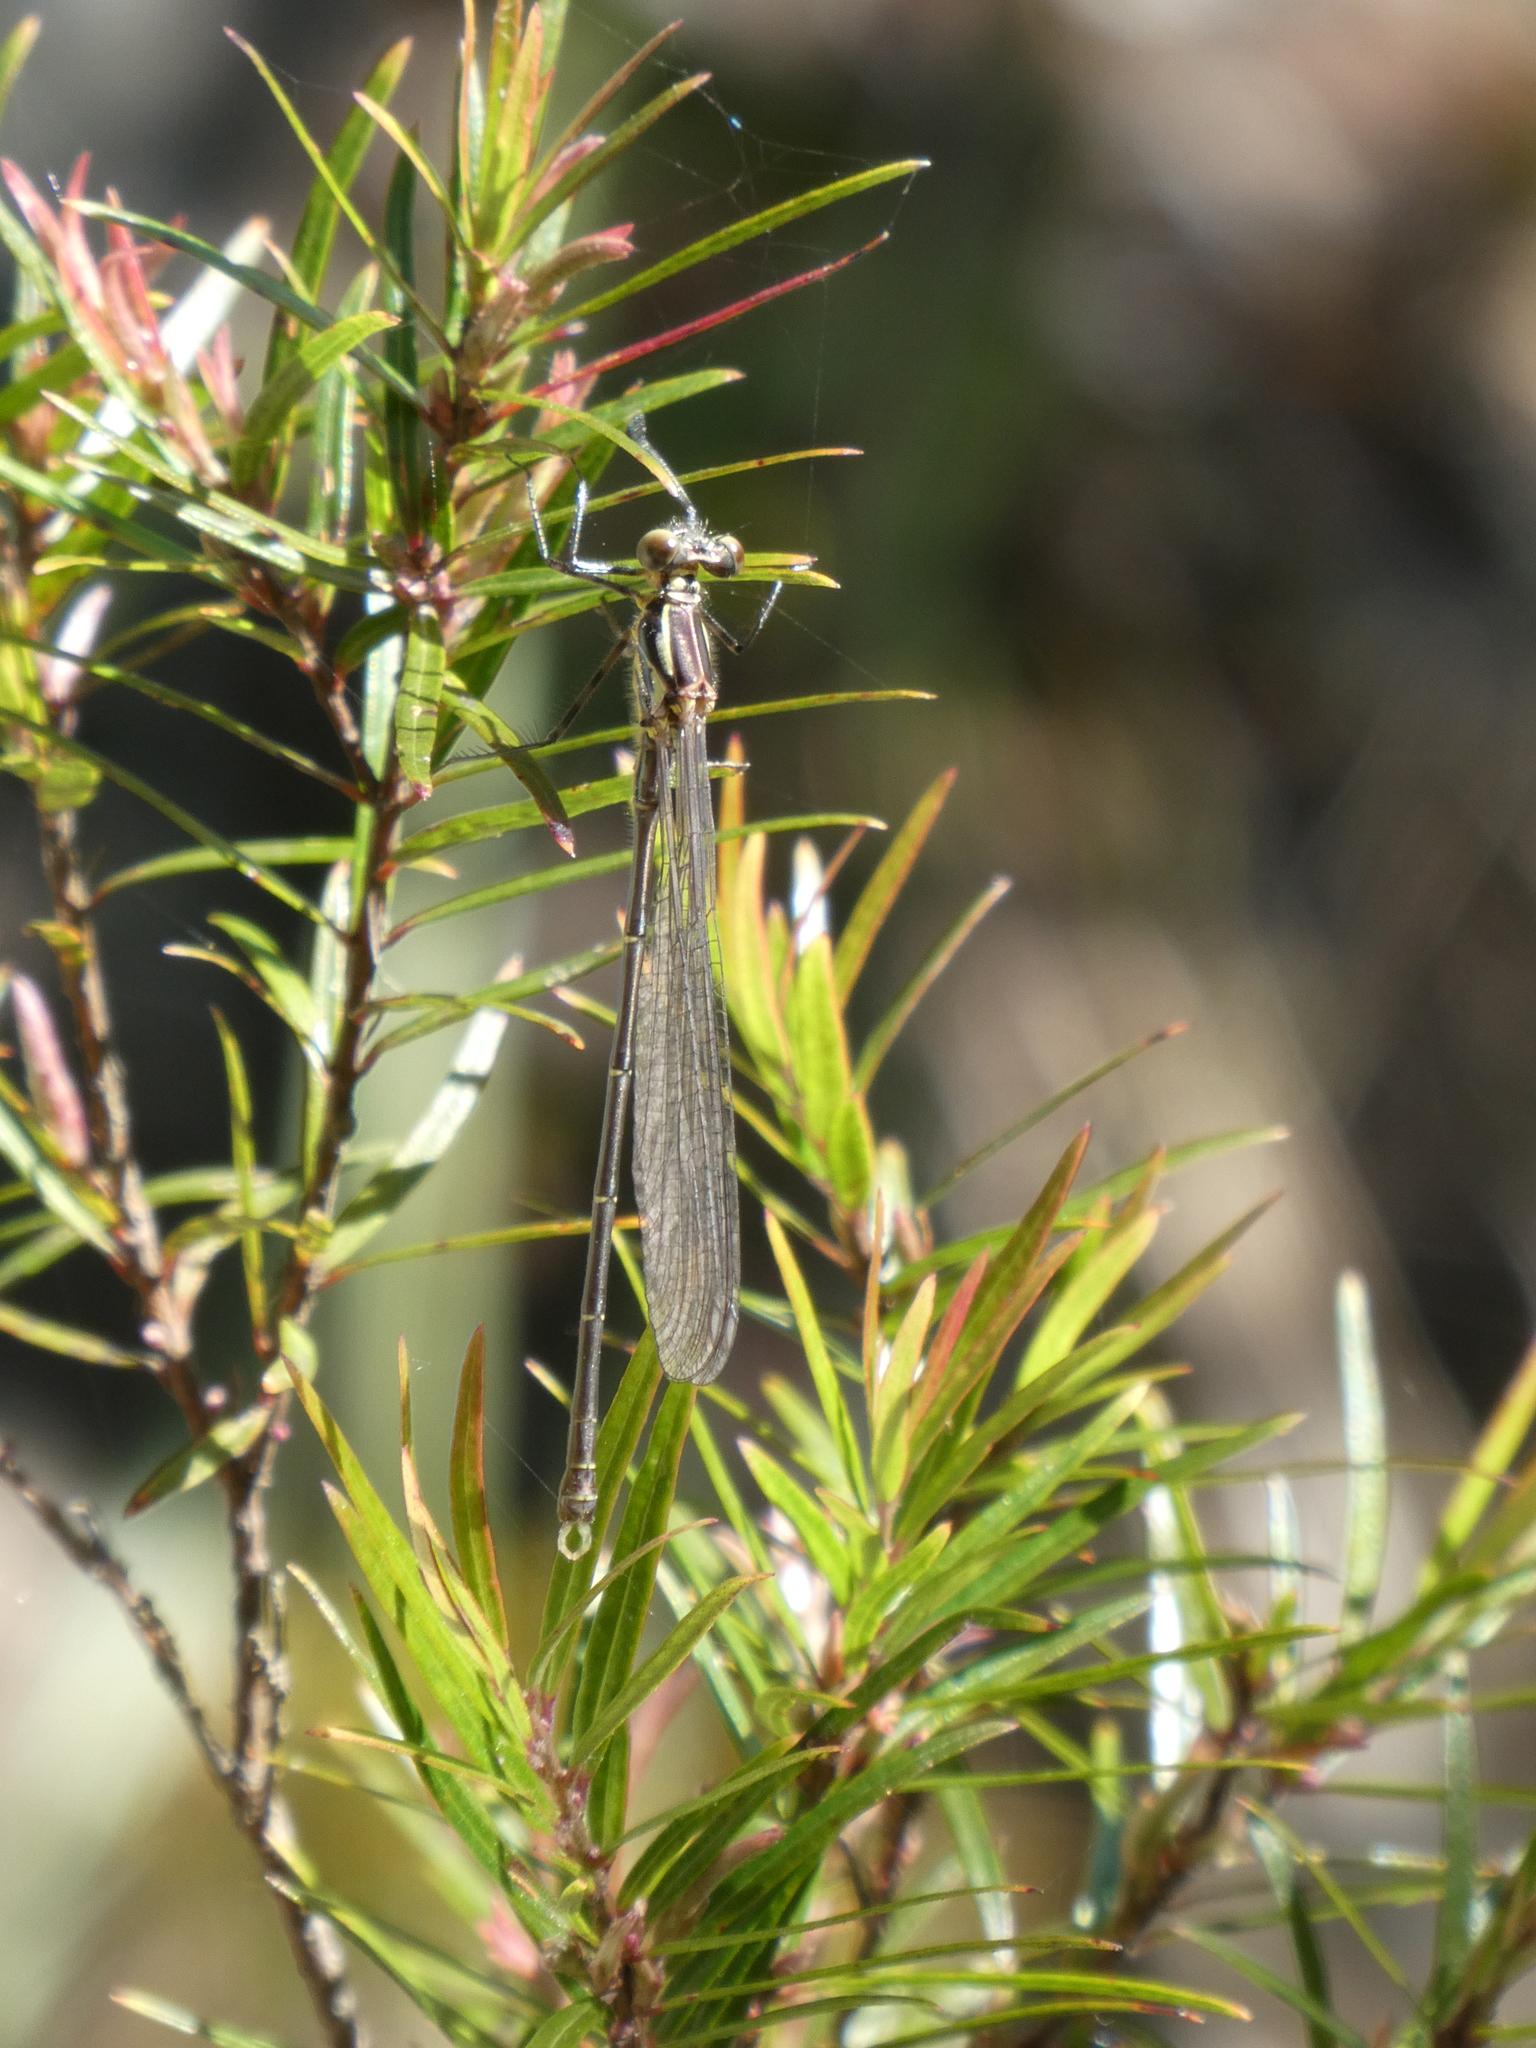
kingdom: Animalia
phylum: Arthropoda
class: Insecta
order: Odonata
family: Argiolestidae
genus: Austroargiolestes
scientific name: Austroargiolestes icteromelas
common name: Common flatwing
